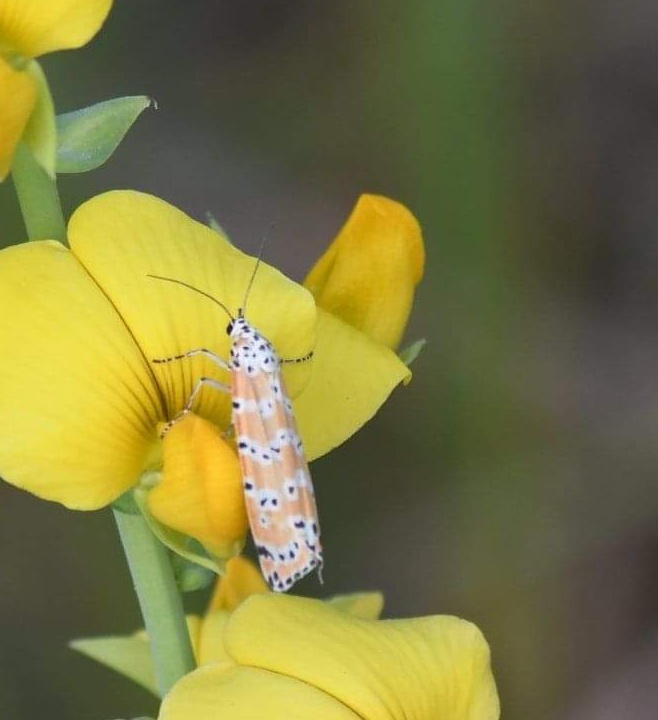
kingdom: Animalia
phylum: Arthropoda
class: Insecta
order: Lepidoptera
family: Erebidae
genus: Utetheisa
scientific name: Utetheisa ornatrix
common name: Beautiful utetheisa
